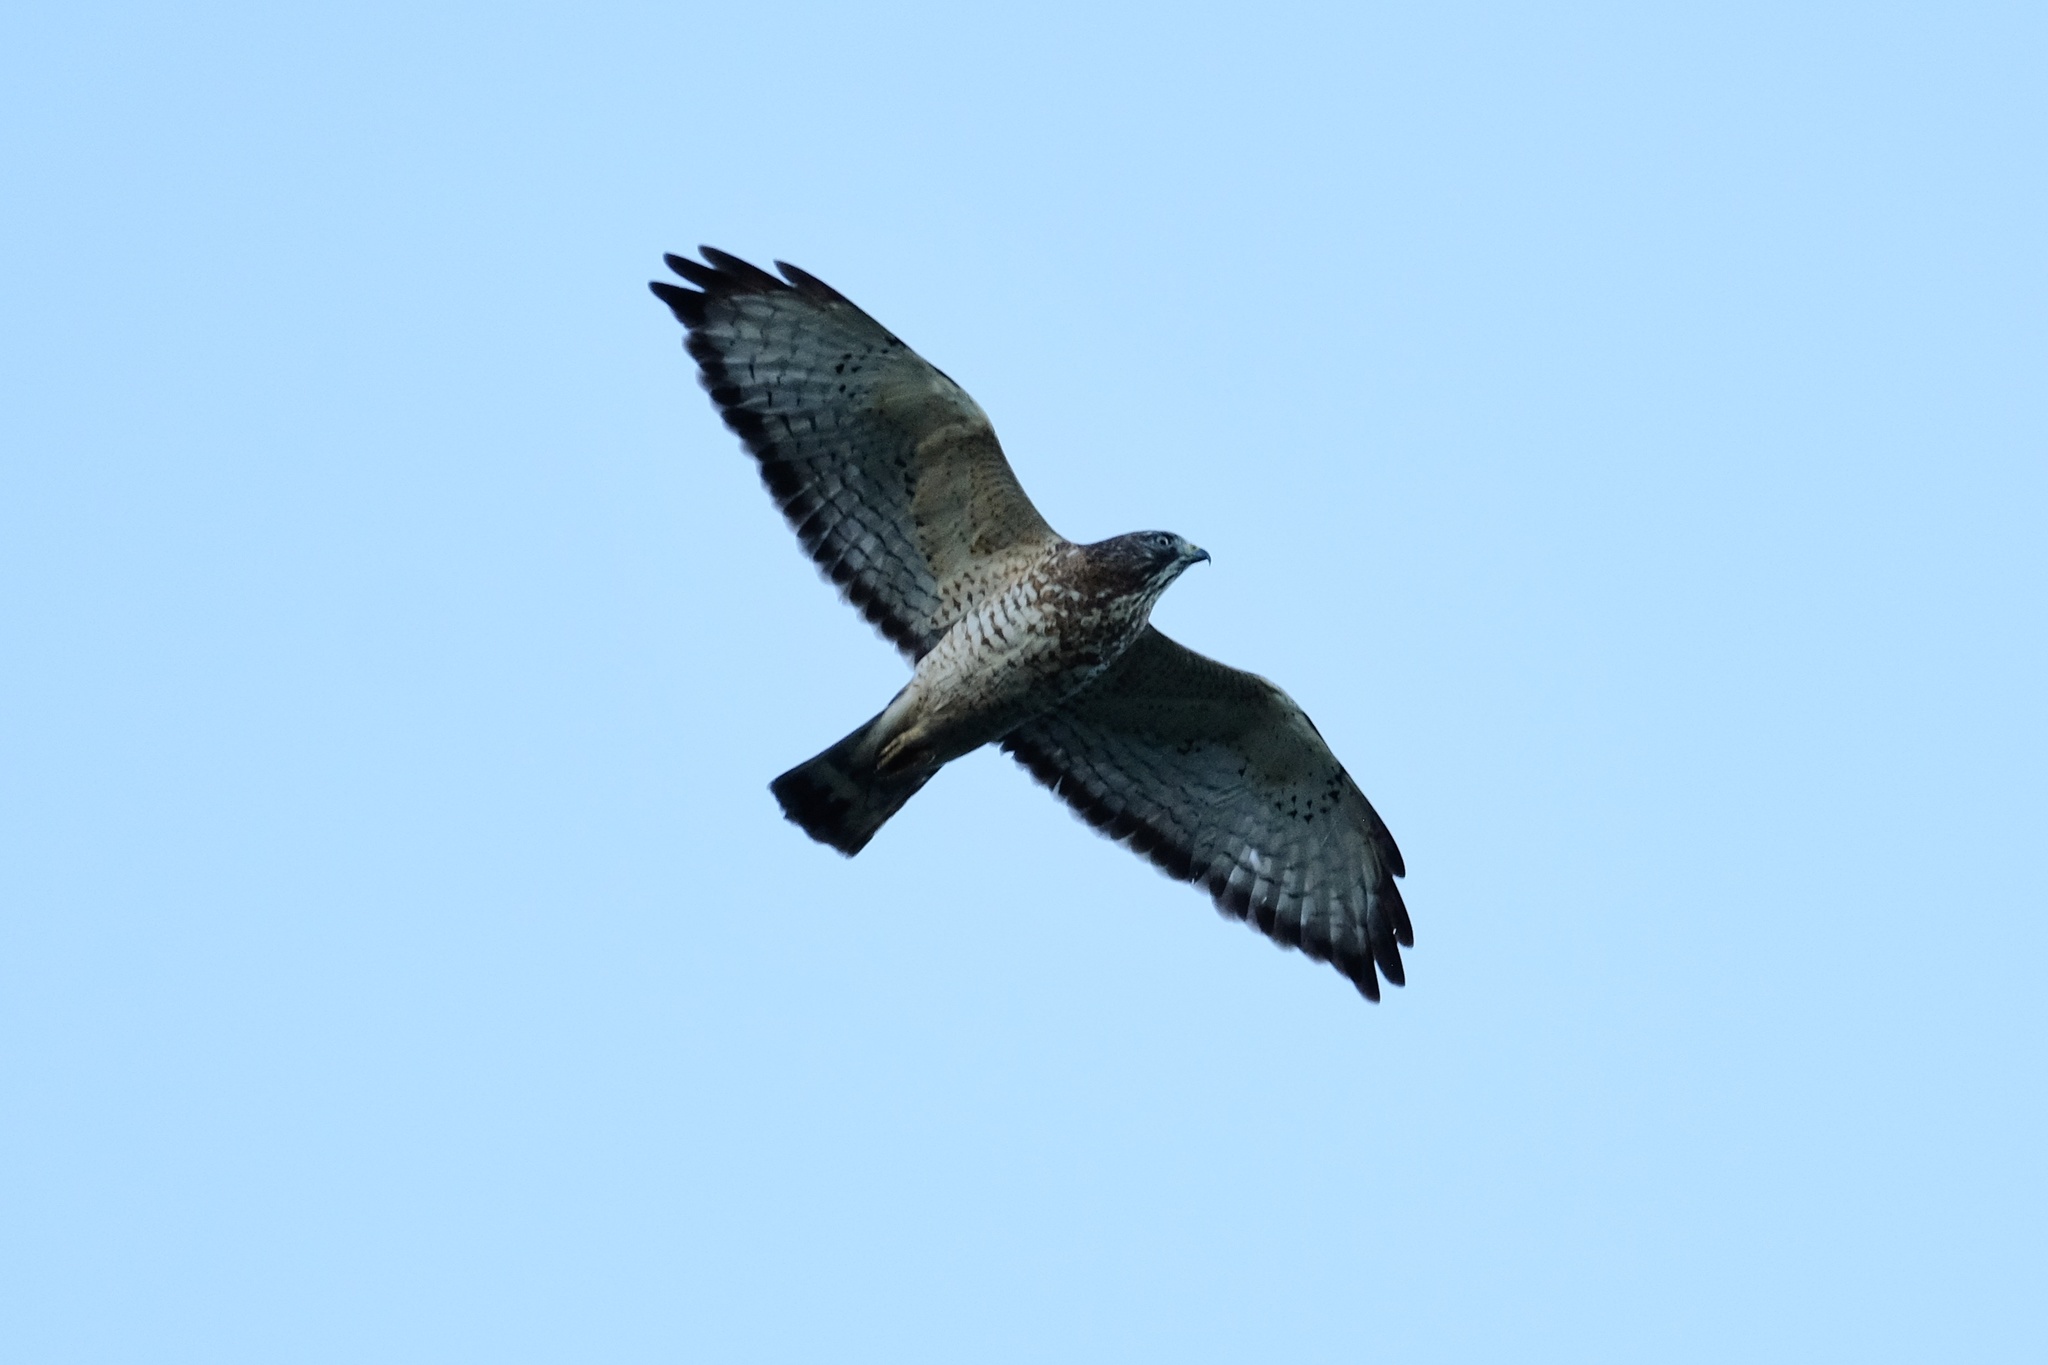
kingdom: Animalia
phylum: Chordata
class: Aves
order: Accipitriformes
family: Accipitridae
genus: Buteo
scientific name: Buteo jamaicensis
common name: Red-tailed hawk
